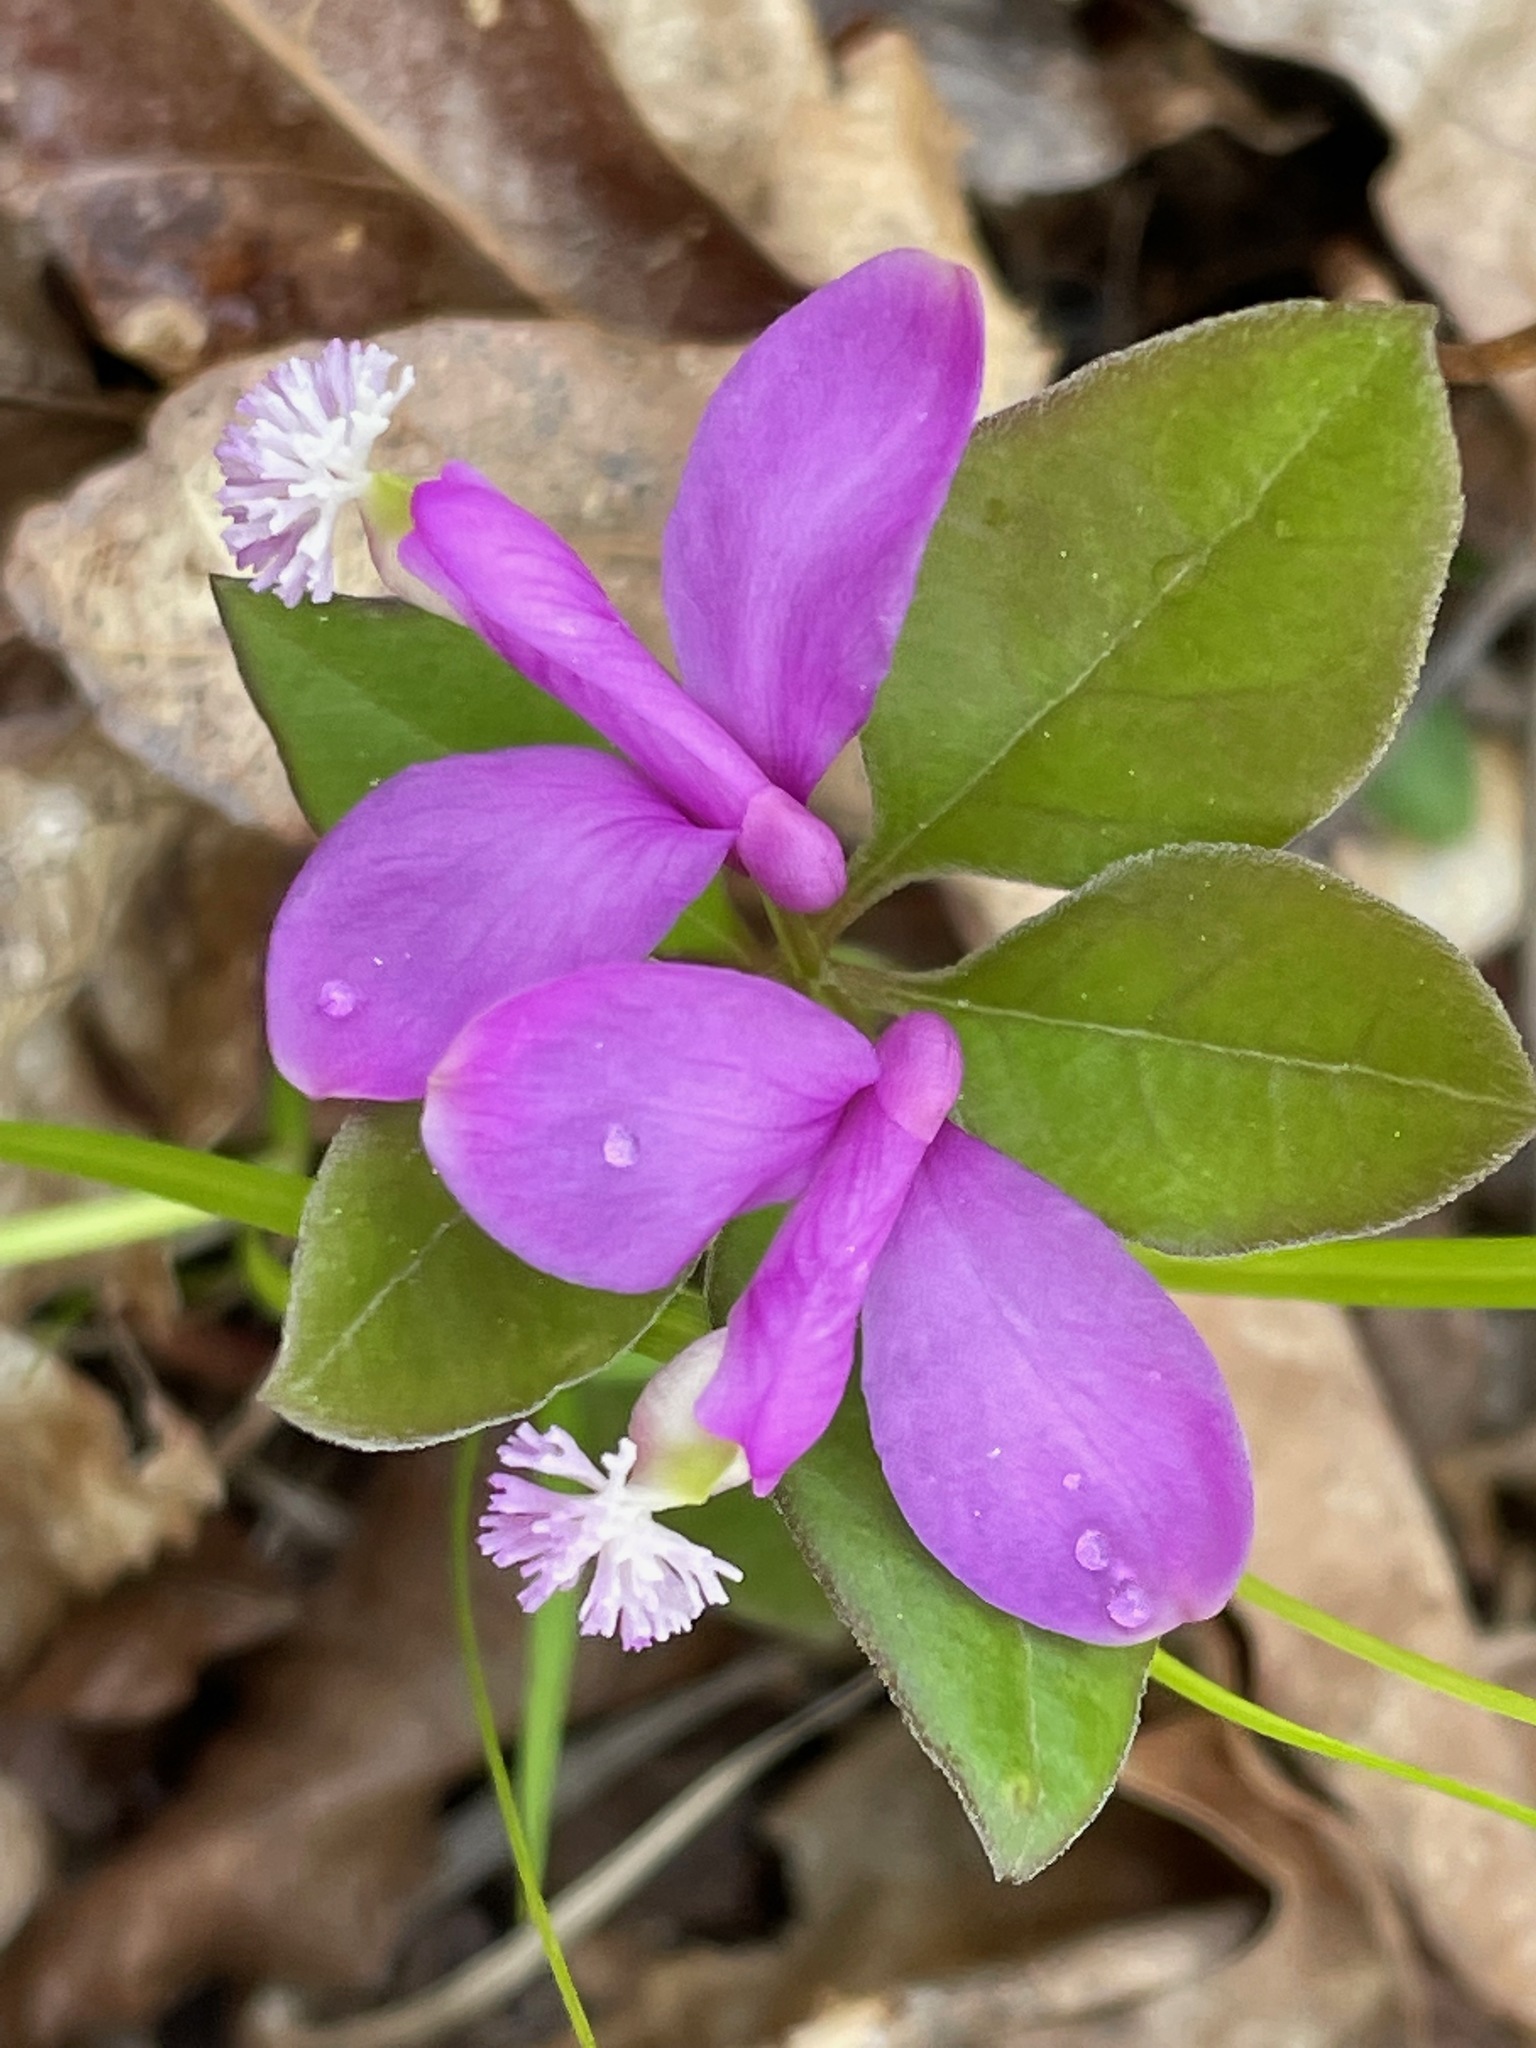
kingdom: Plantae
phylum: Tracheophyta
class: Magnoliopsida
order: Fabales
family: Polygalaceae
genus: Polygaloides
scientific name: Polygaloides paucifolia
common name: Bird-on-the-wing
